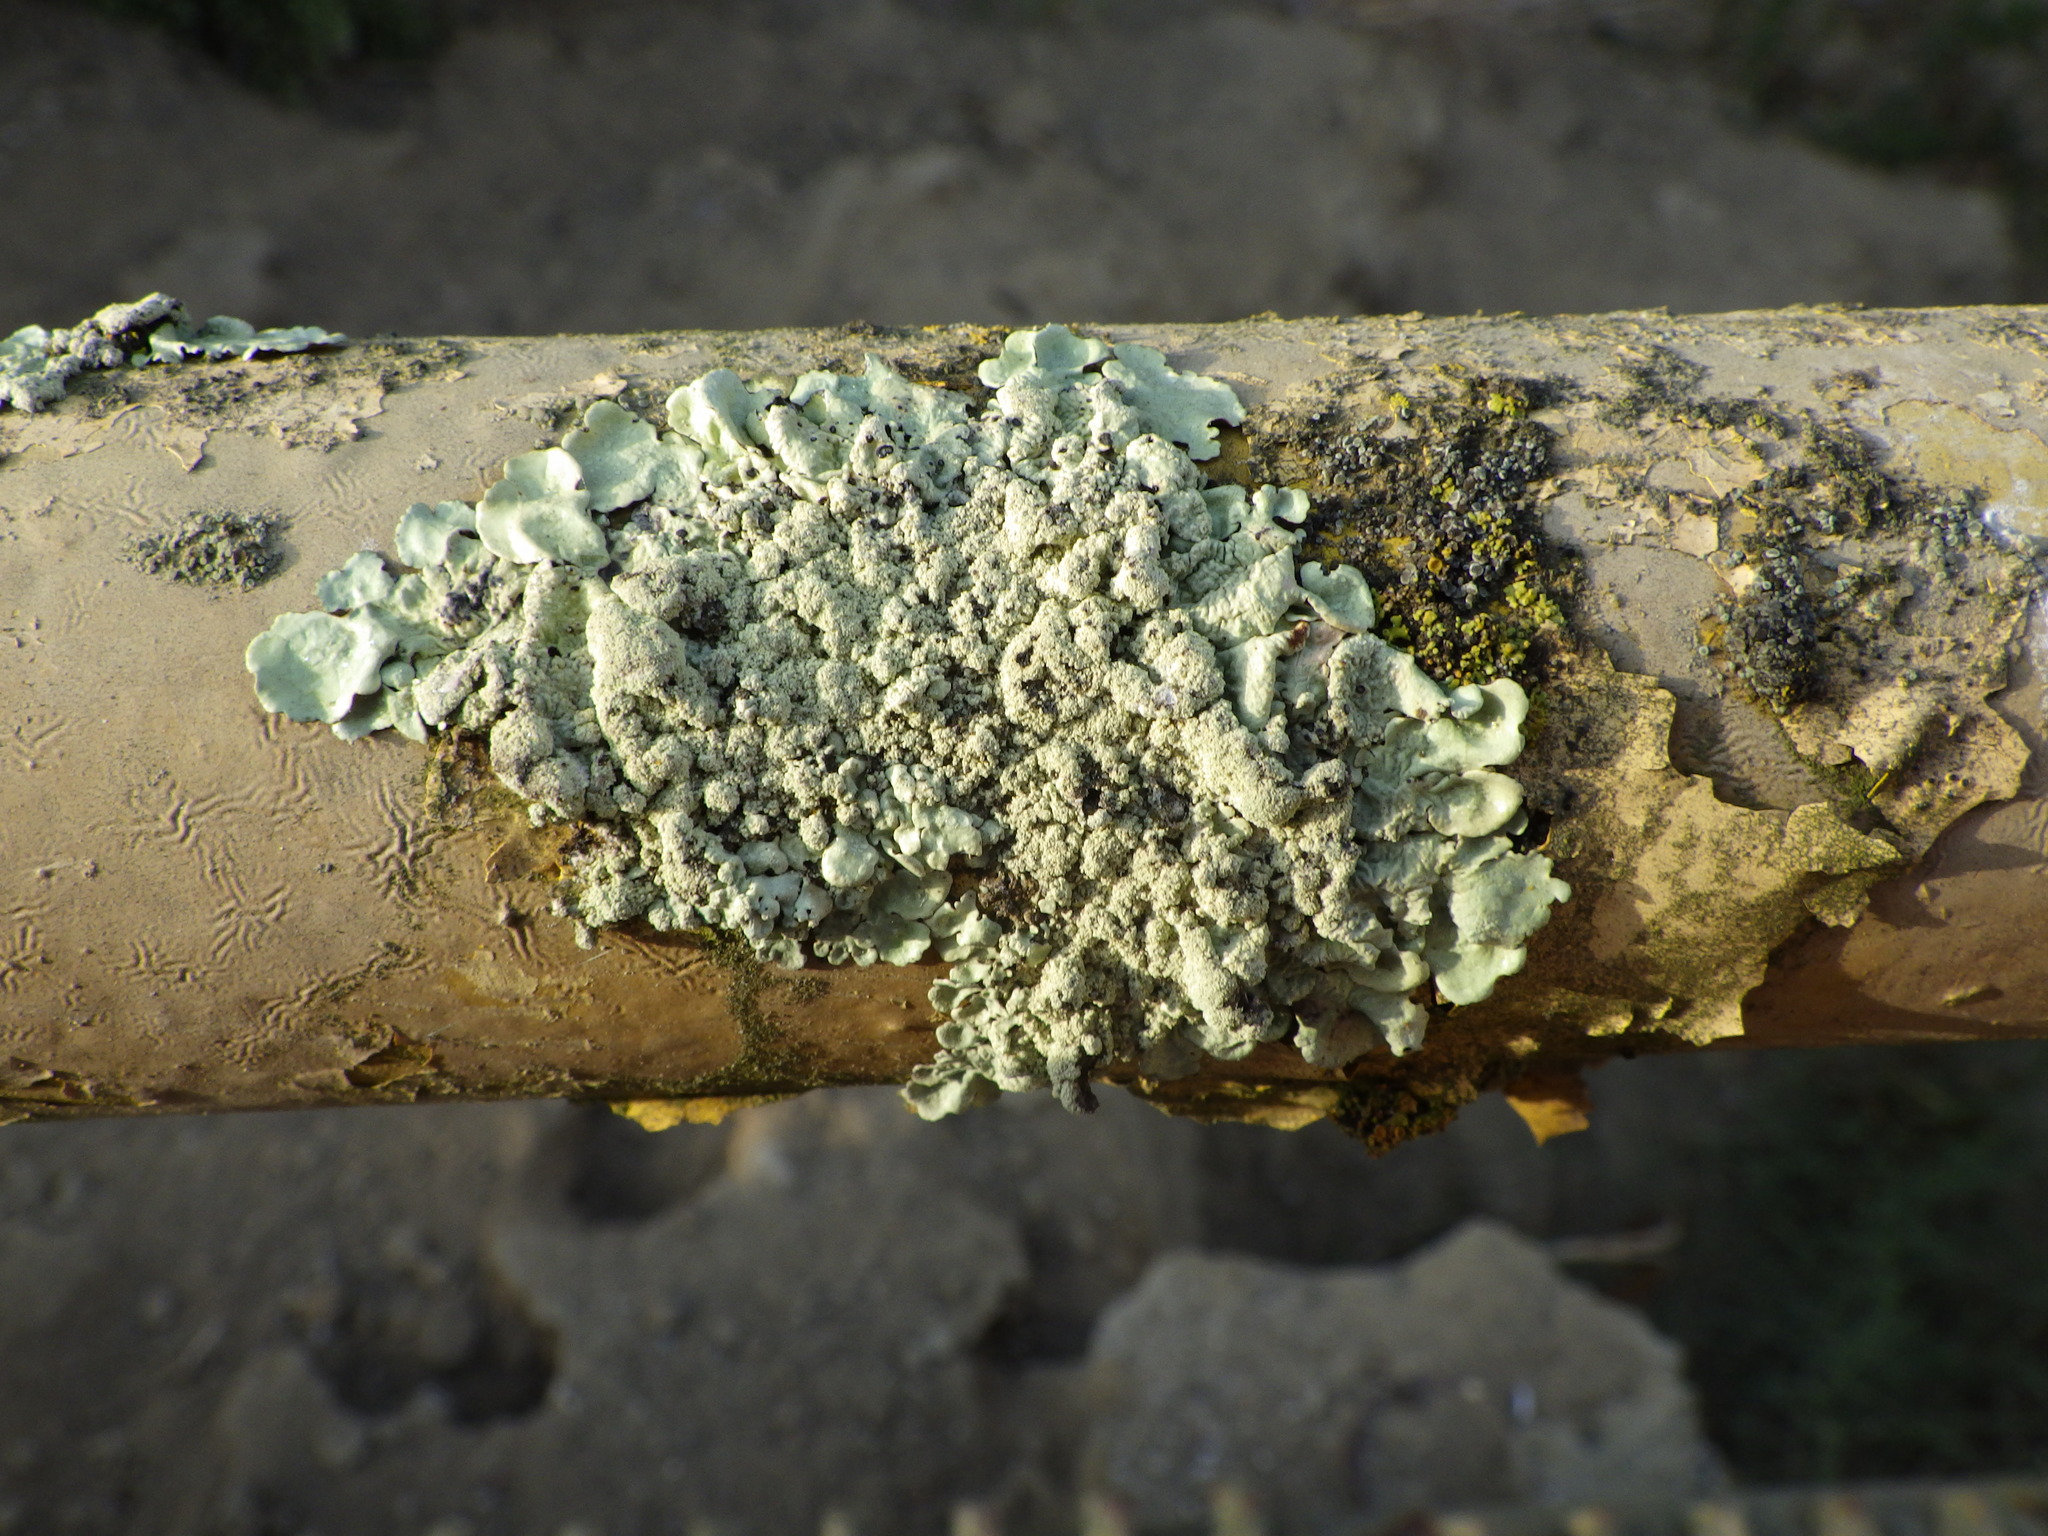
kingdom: Fungi
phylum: Ascomycota
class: Lecanoromycetes
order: Lecanorales
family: Parmeliaceae
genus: Flavoparmelia
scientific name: Flavoparmelia caperata
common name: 40-mile per hour lichen
